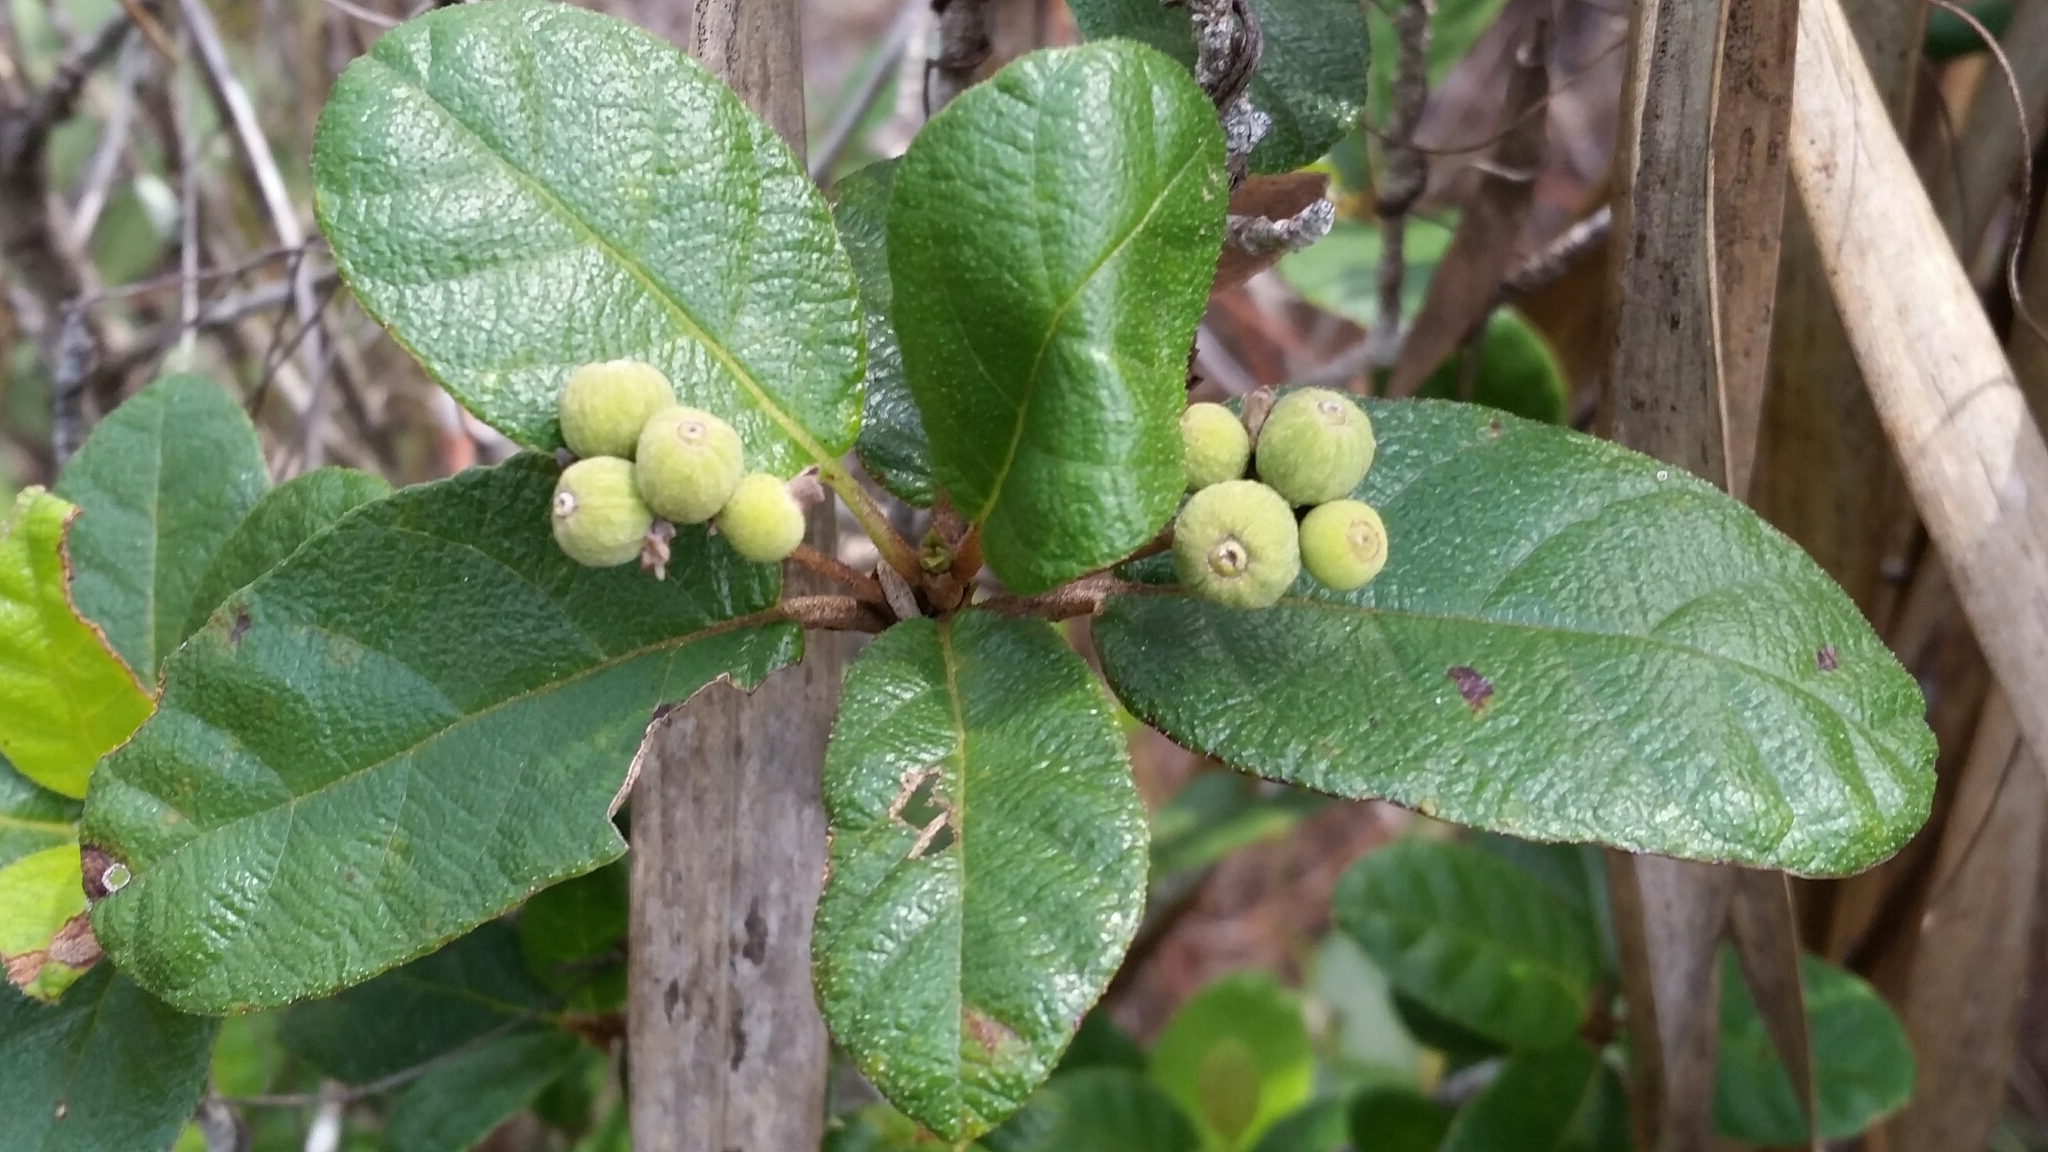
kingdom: Plantae
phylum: Tracheophyta
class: Magnoliopsida
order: Gentianales
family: Rubiaceae
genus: Guettarda
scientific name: Guettarda scabra
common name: Pigeon bay
